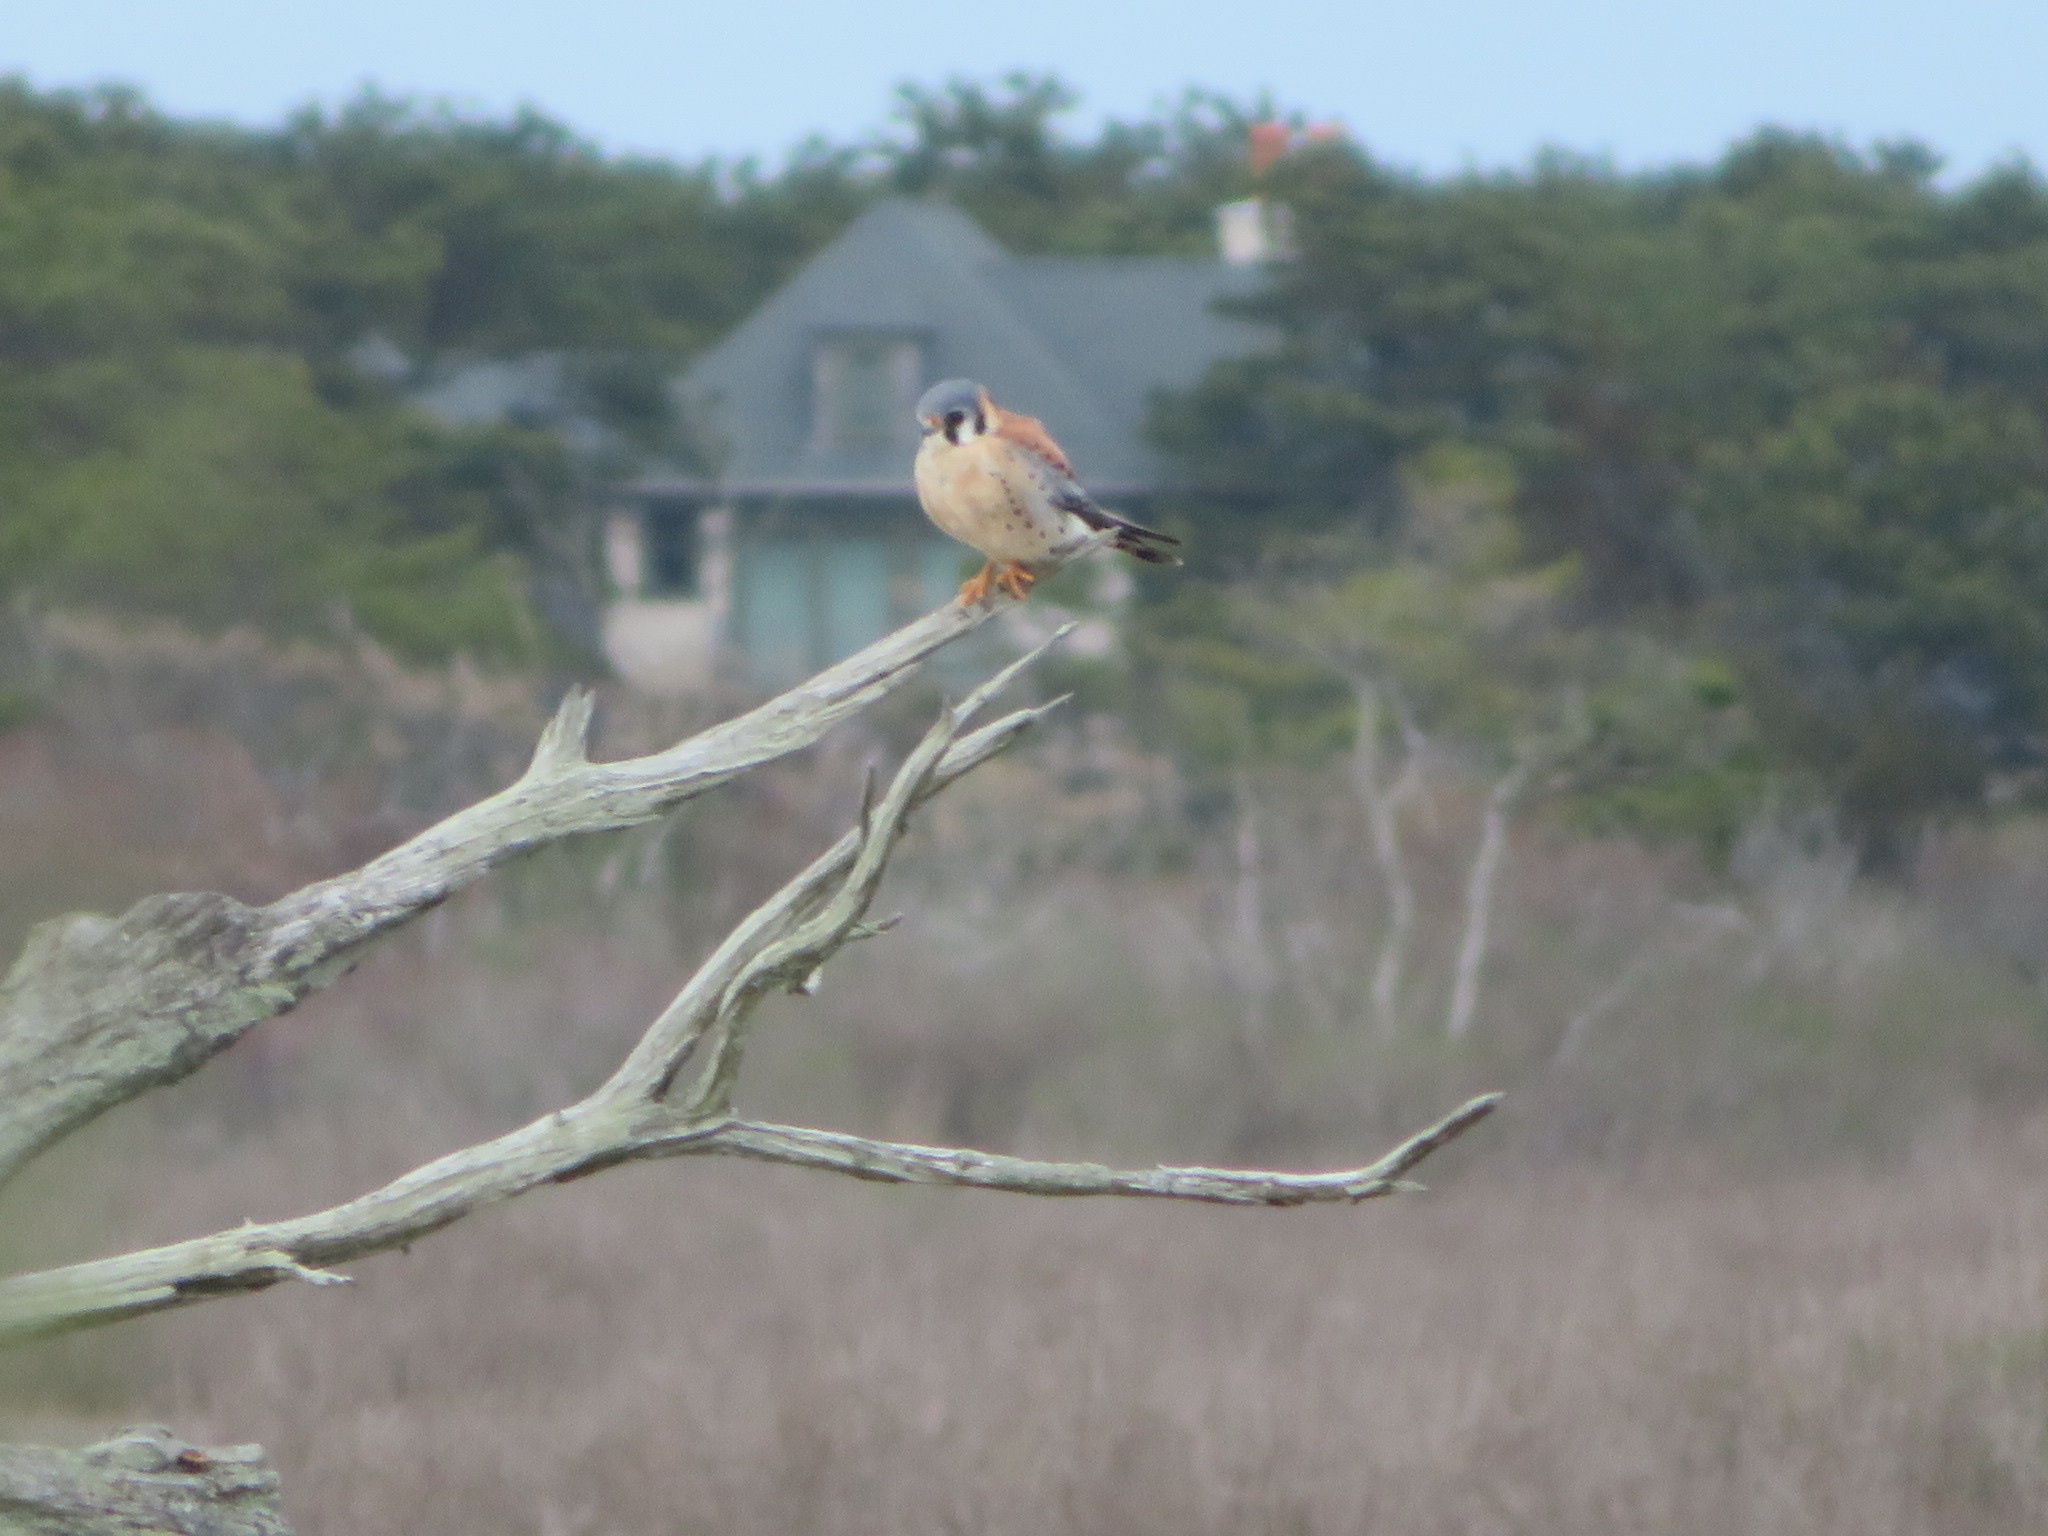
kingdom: Animalia
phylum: Chordata
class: Aves
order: Falconiformes
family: Falconidae
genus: Falco
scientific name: Falco sparverius
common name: American kestrel
